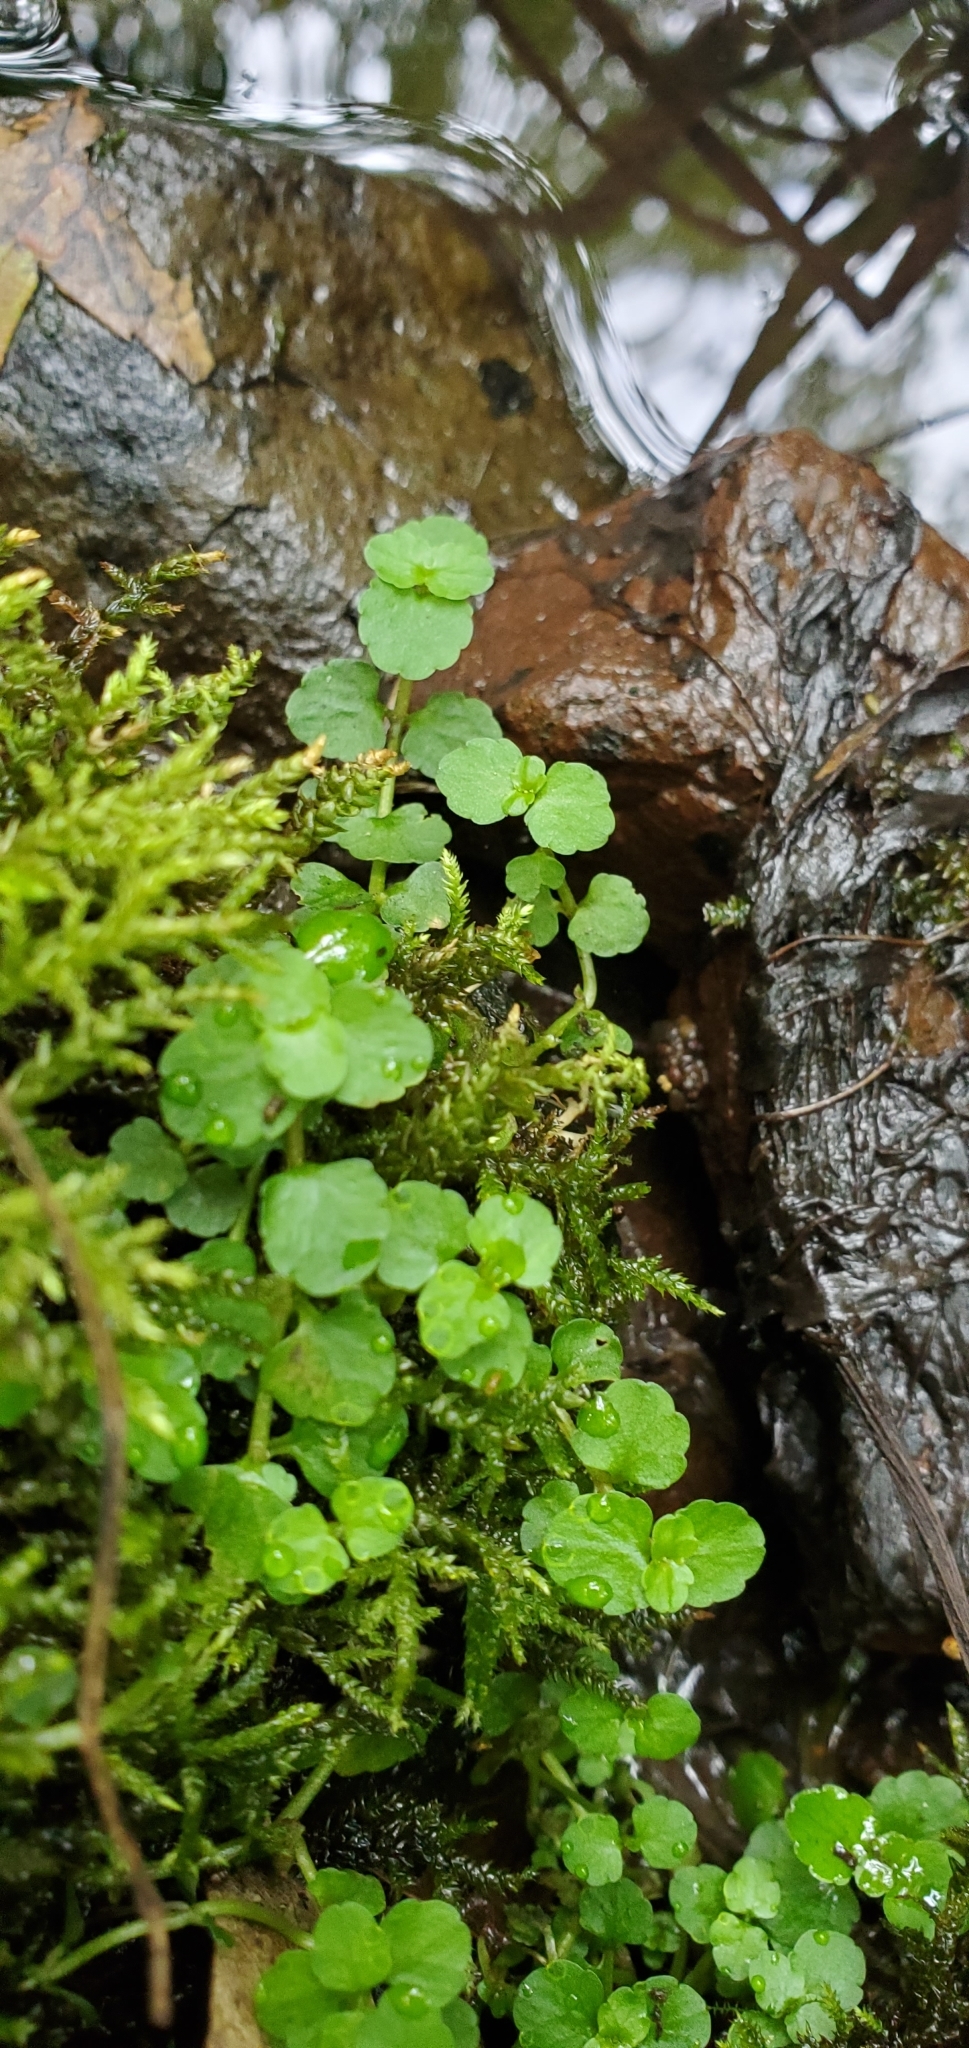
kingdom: Plantae
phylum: Tracheophyta
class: Magnoliopsida
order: Saxifragales
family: Saxifragaceae
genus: Chrysosplenium
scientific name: Chrysosplenium americanum
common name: American golden-saxifrage
